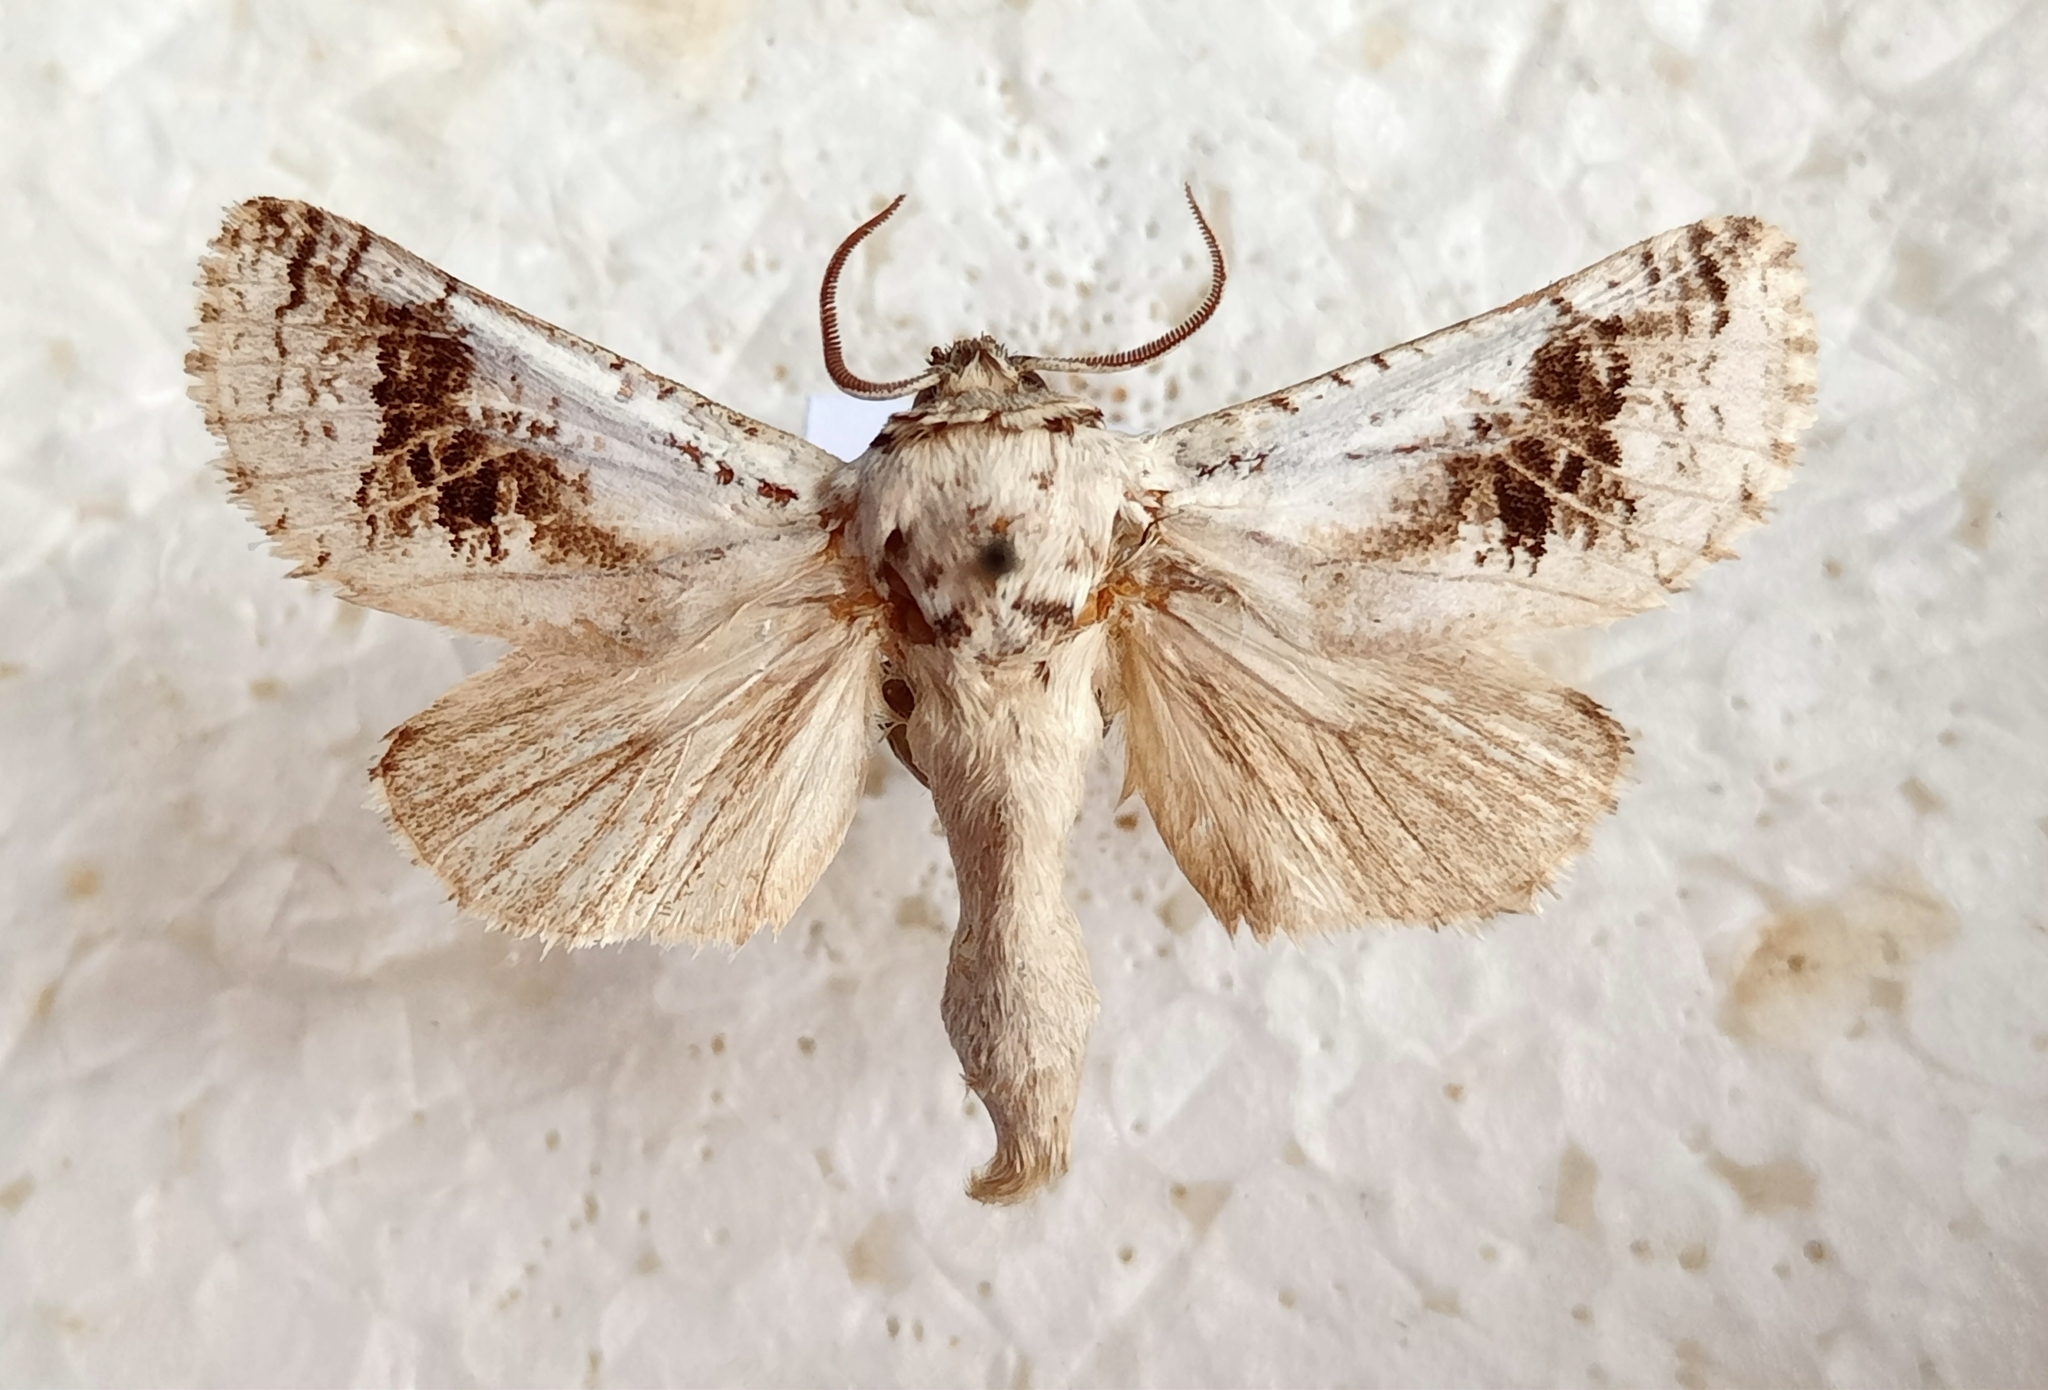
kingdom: Animalia
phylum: Arthropoda
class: Insecta
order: Lepidoptera
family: Cossidae
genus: Parahypopta
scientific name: Parahypopta caestrum
